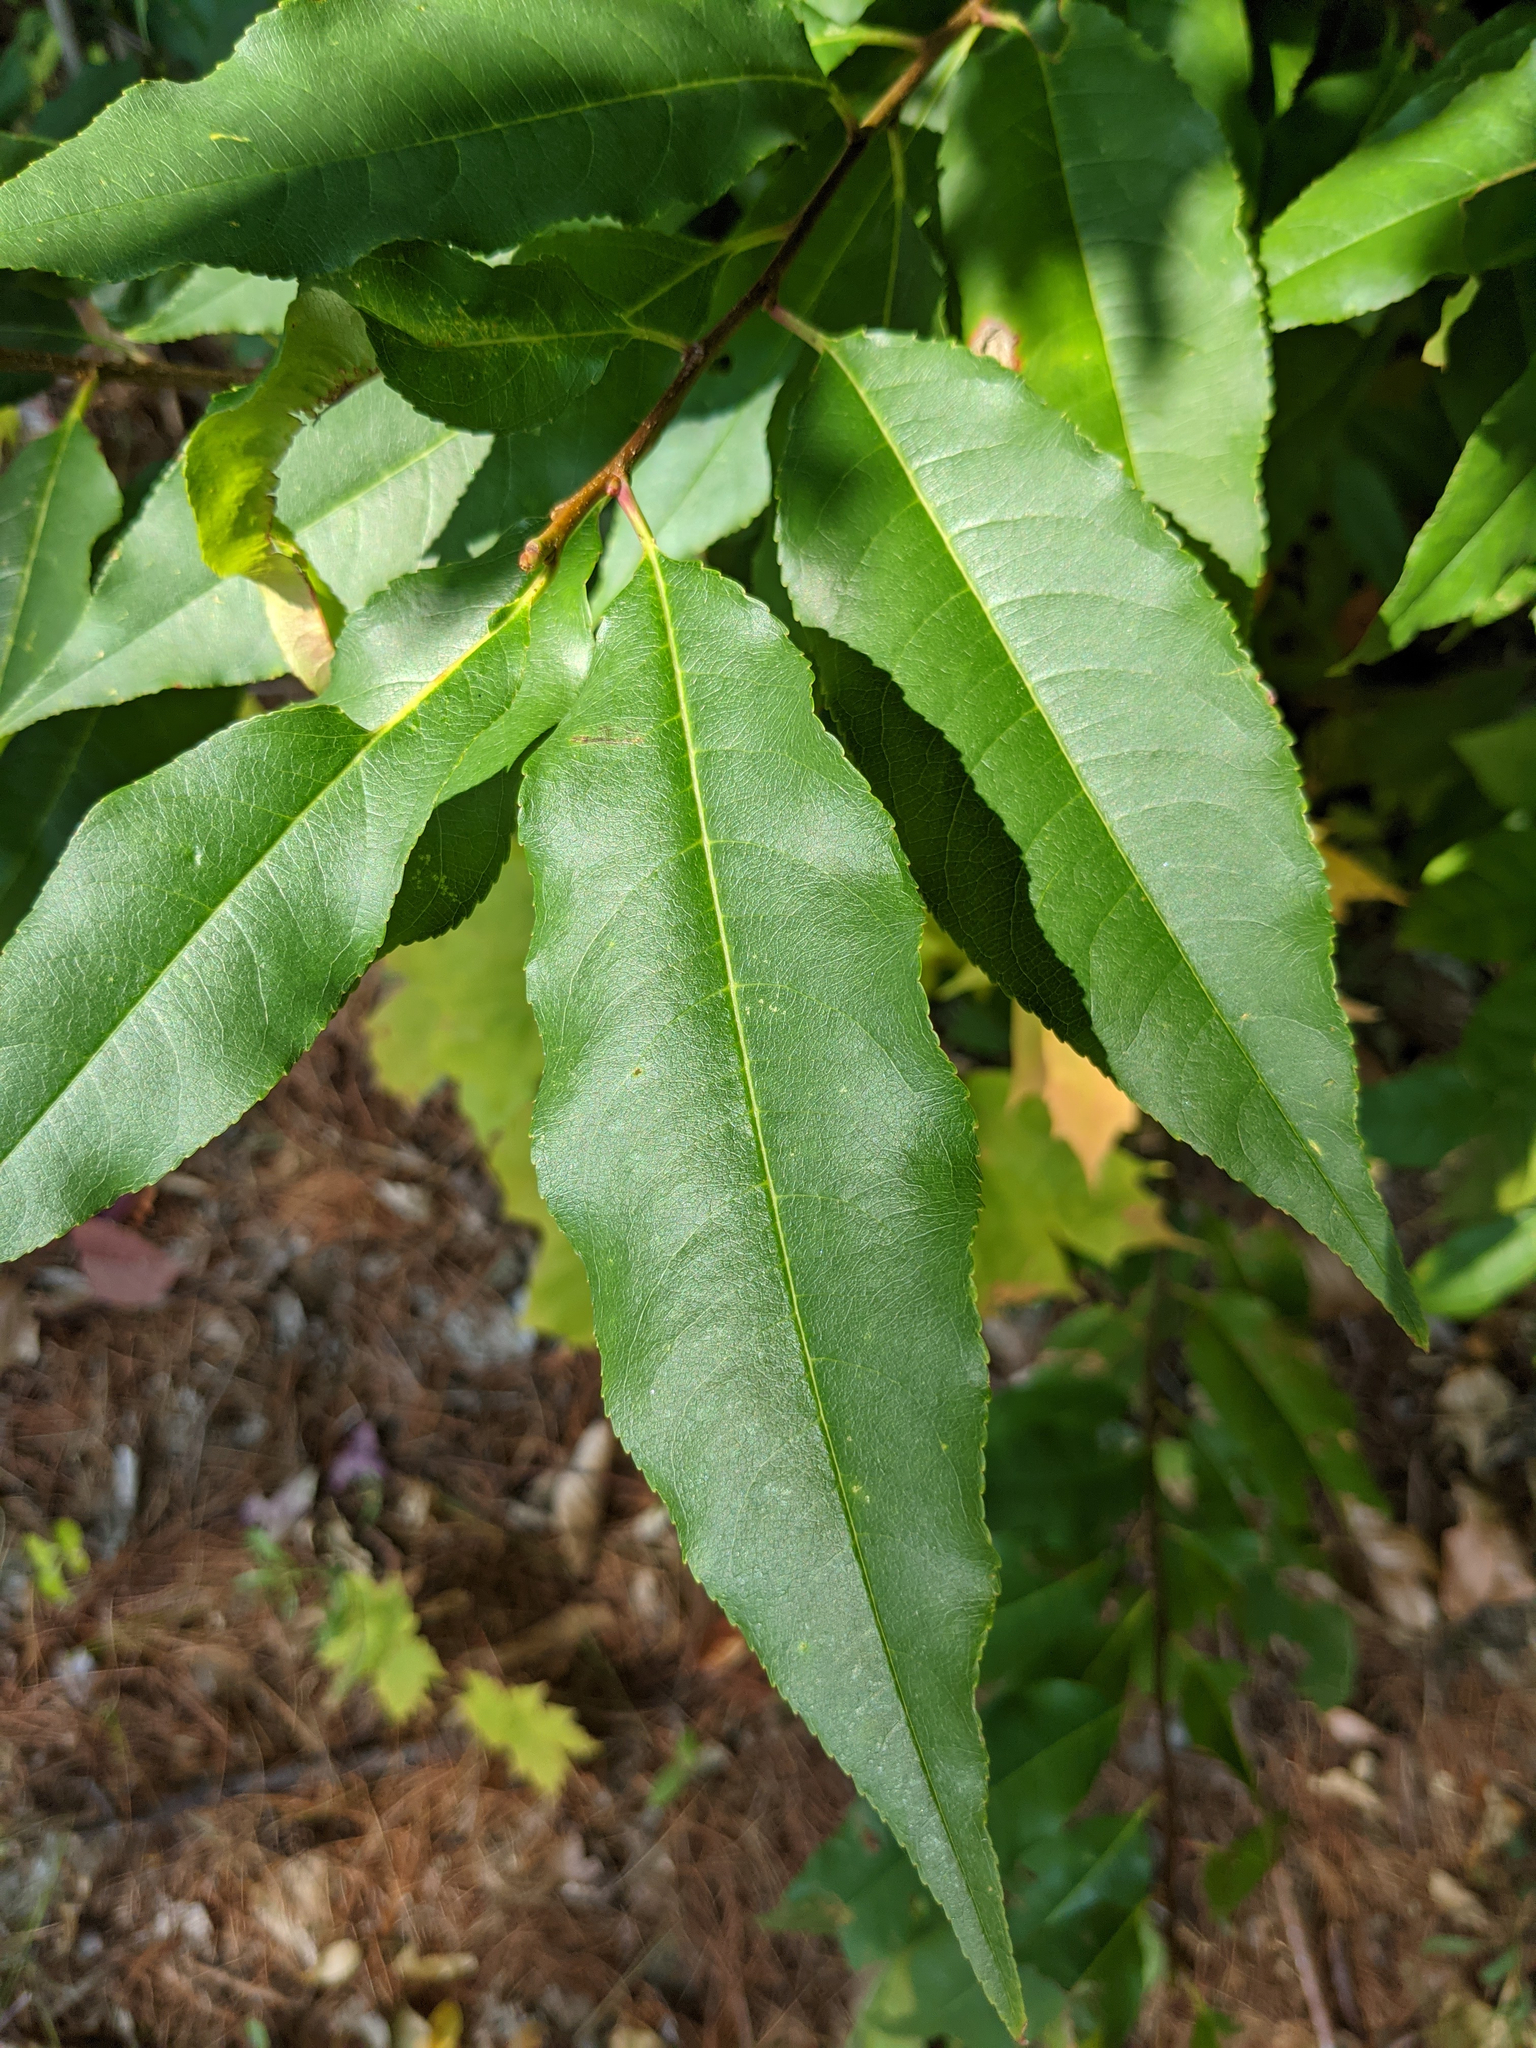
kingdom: Plantae
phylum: Tracheophyta
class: Magnoliopsida
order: Rosales
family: Rosaceae
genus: Prunus
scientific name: Prunus serotina
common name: Black cherry
